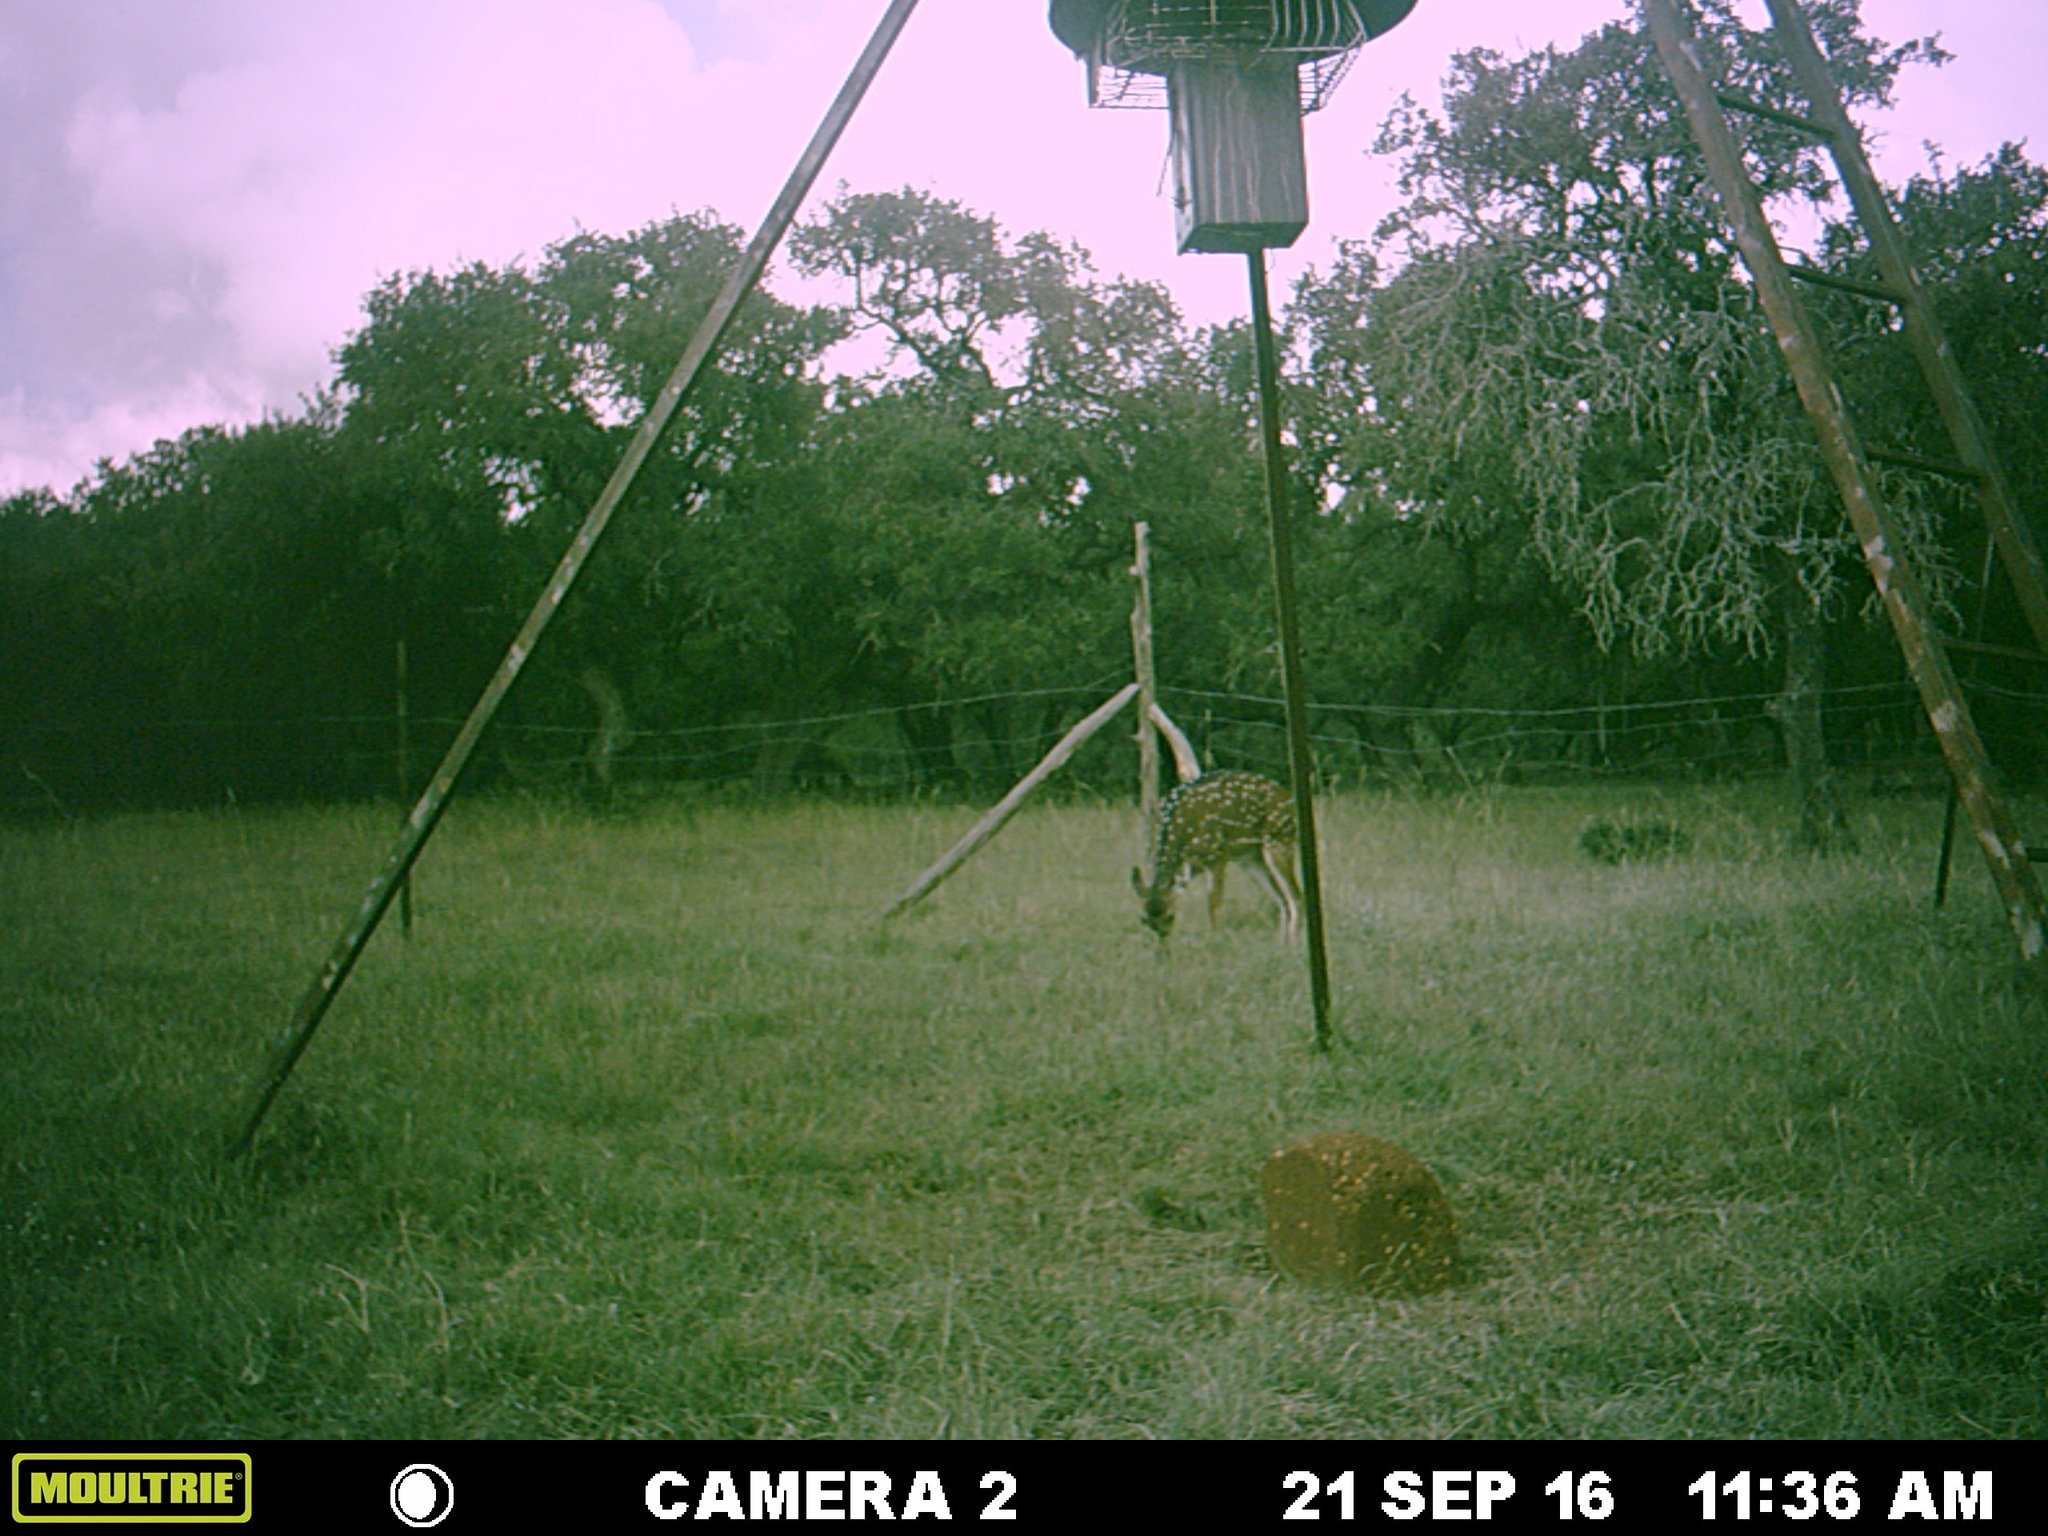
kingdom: Animalia
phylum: Chordata
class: Mammalia
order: Artiodactyla
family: Cervidae
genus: Axis
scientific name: Axis axis
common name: Chital
